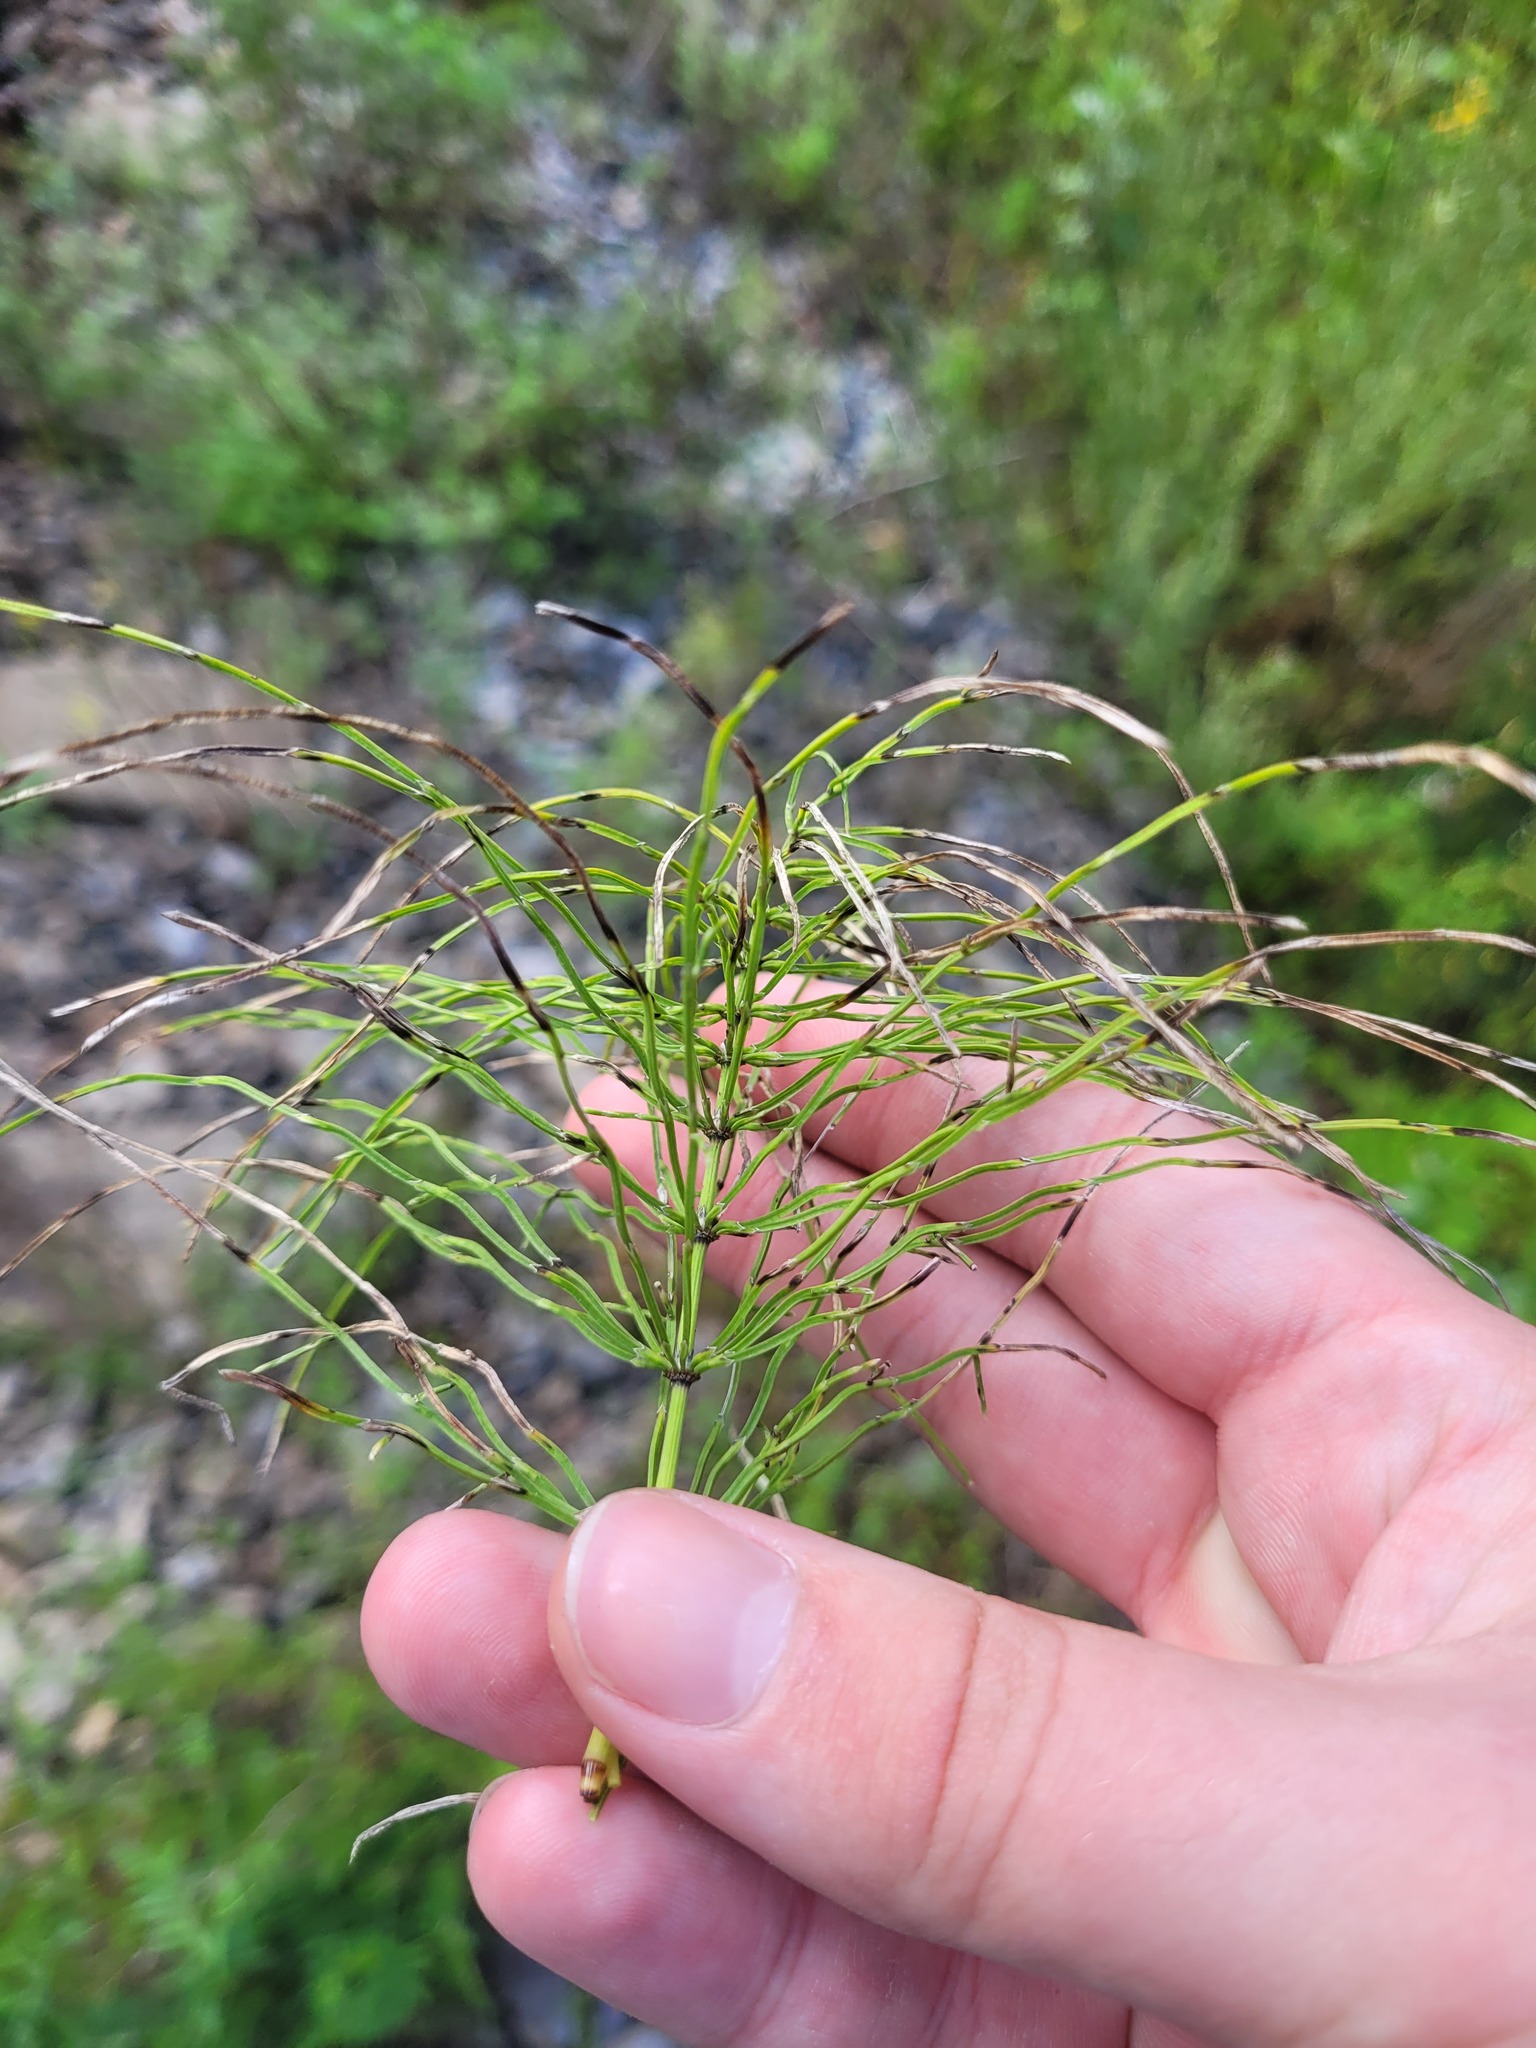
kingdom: Plantae
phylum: Tracheophyta
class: Polypodiopsida
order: Equisetales
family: Equisetaceae
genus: Equisetum
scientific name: Equisetum pratense
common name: Meadow horsetail
